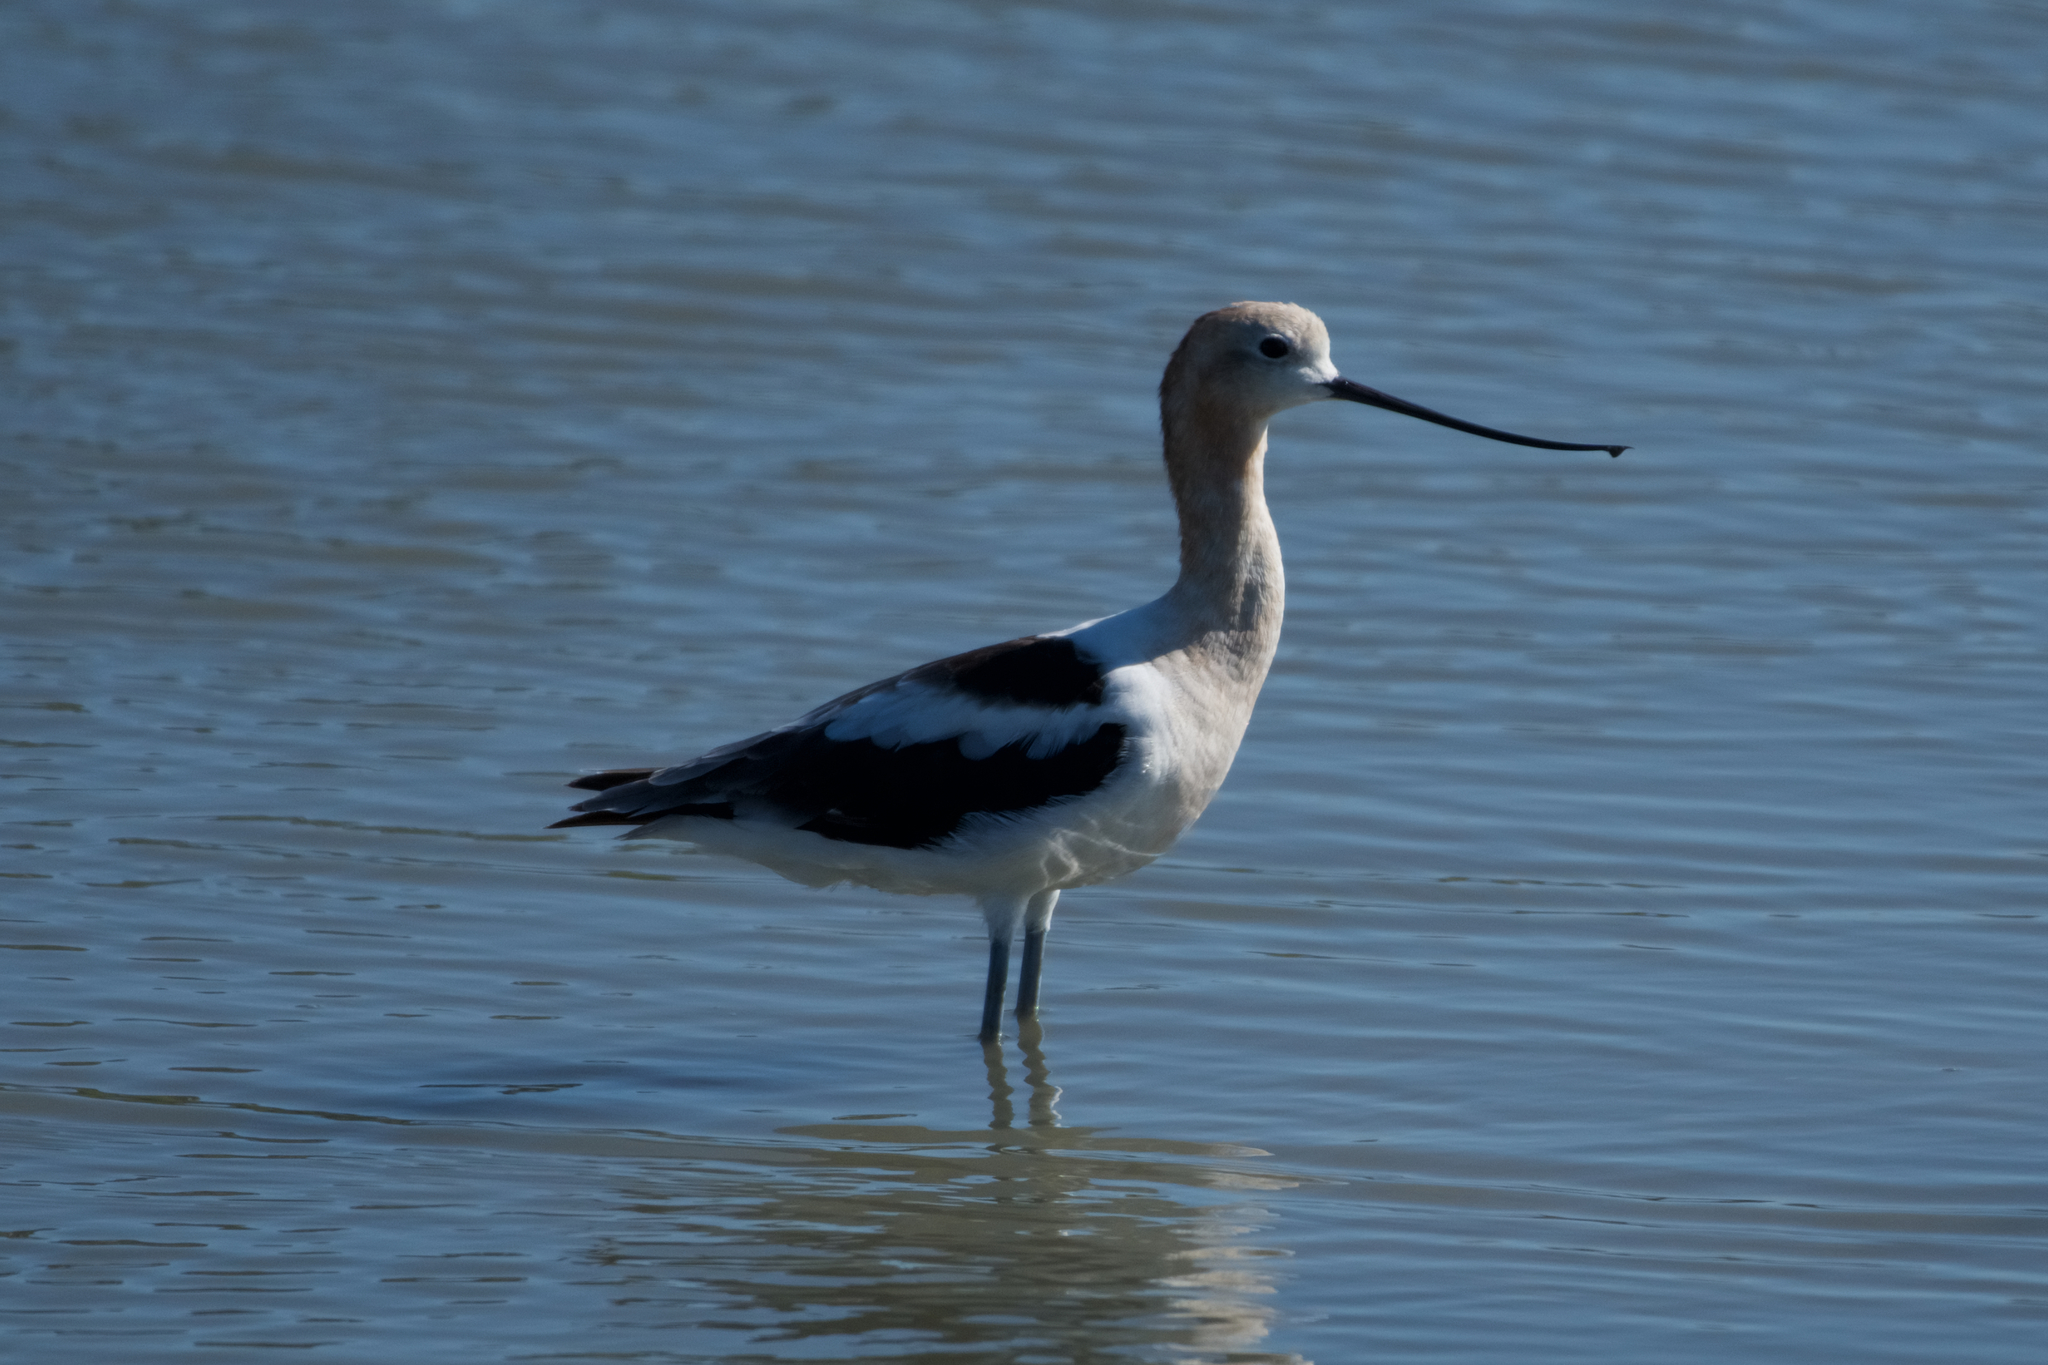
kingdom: Animalia
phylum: Chordata
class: Aves
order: Charadriiformes
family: Recurvirostridae
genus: Recurvirostra
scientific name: Recurvirostra americana
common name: American avocet
